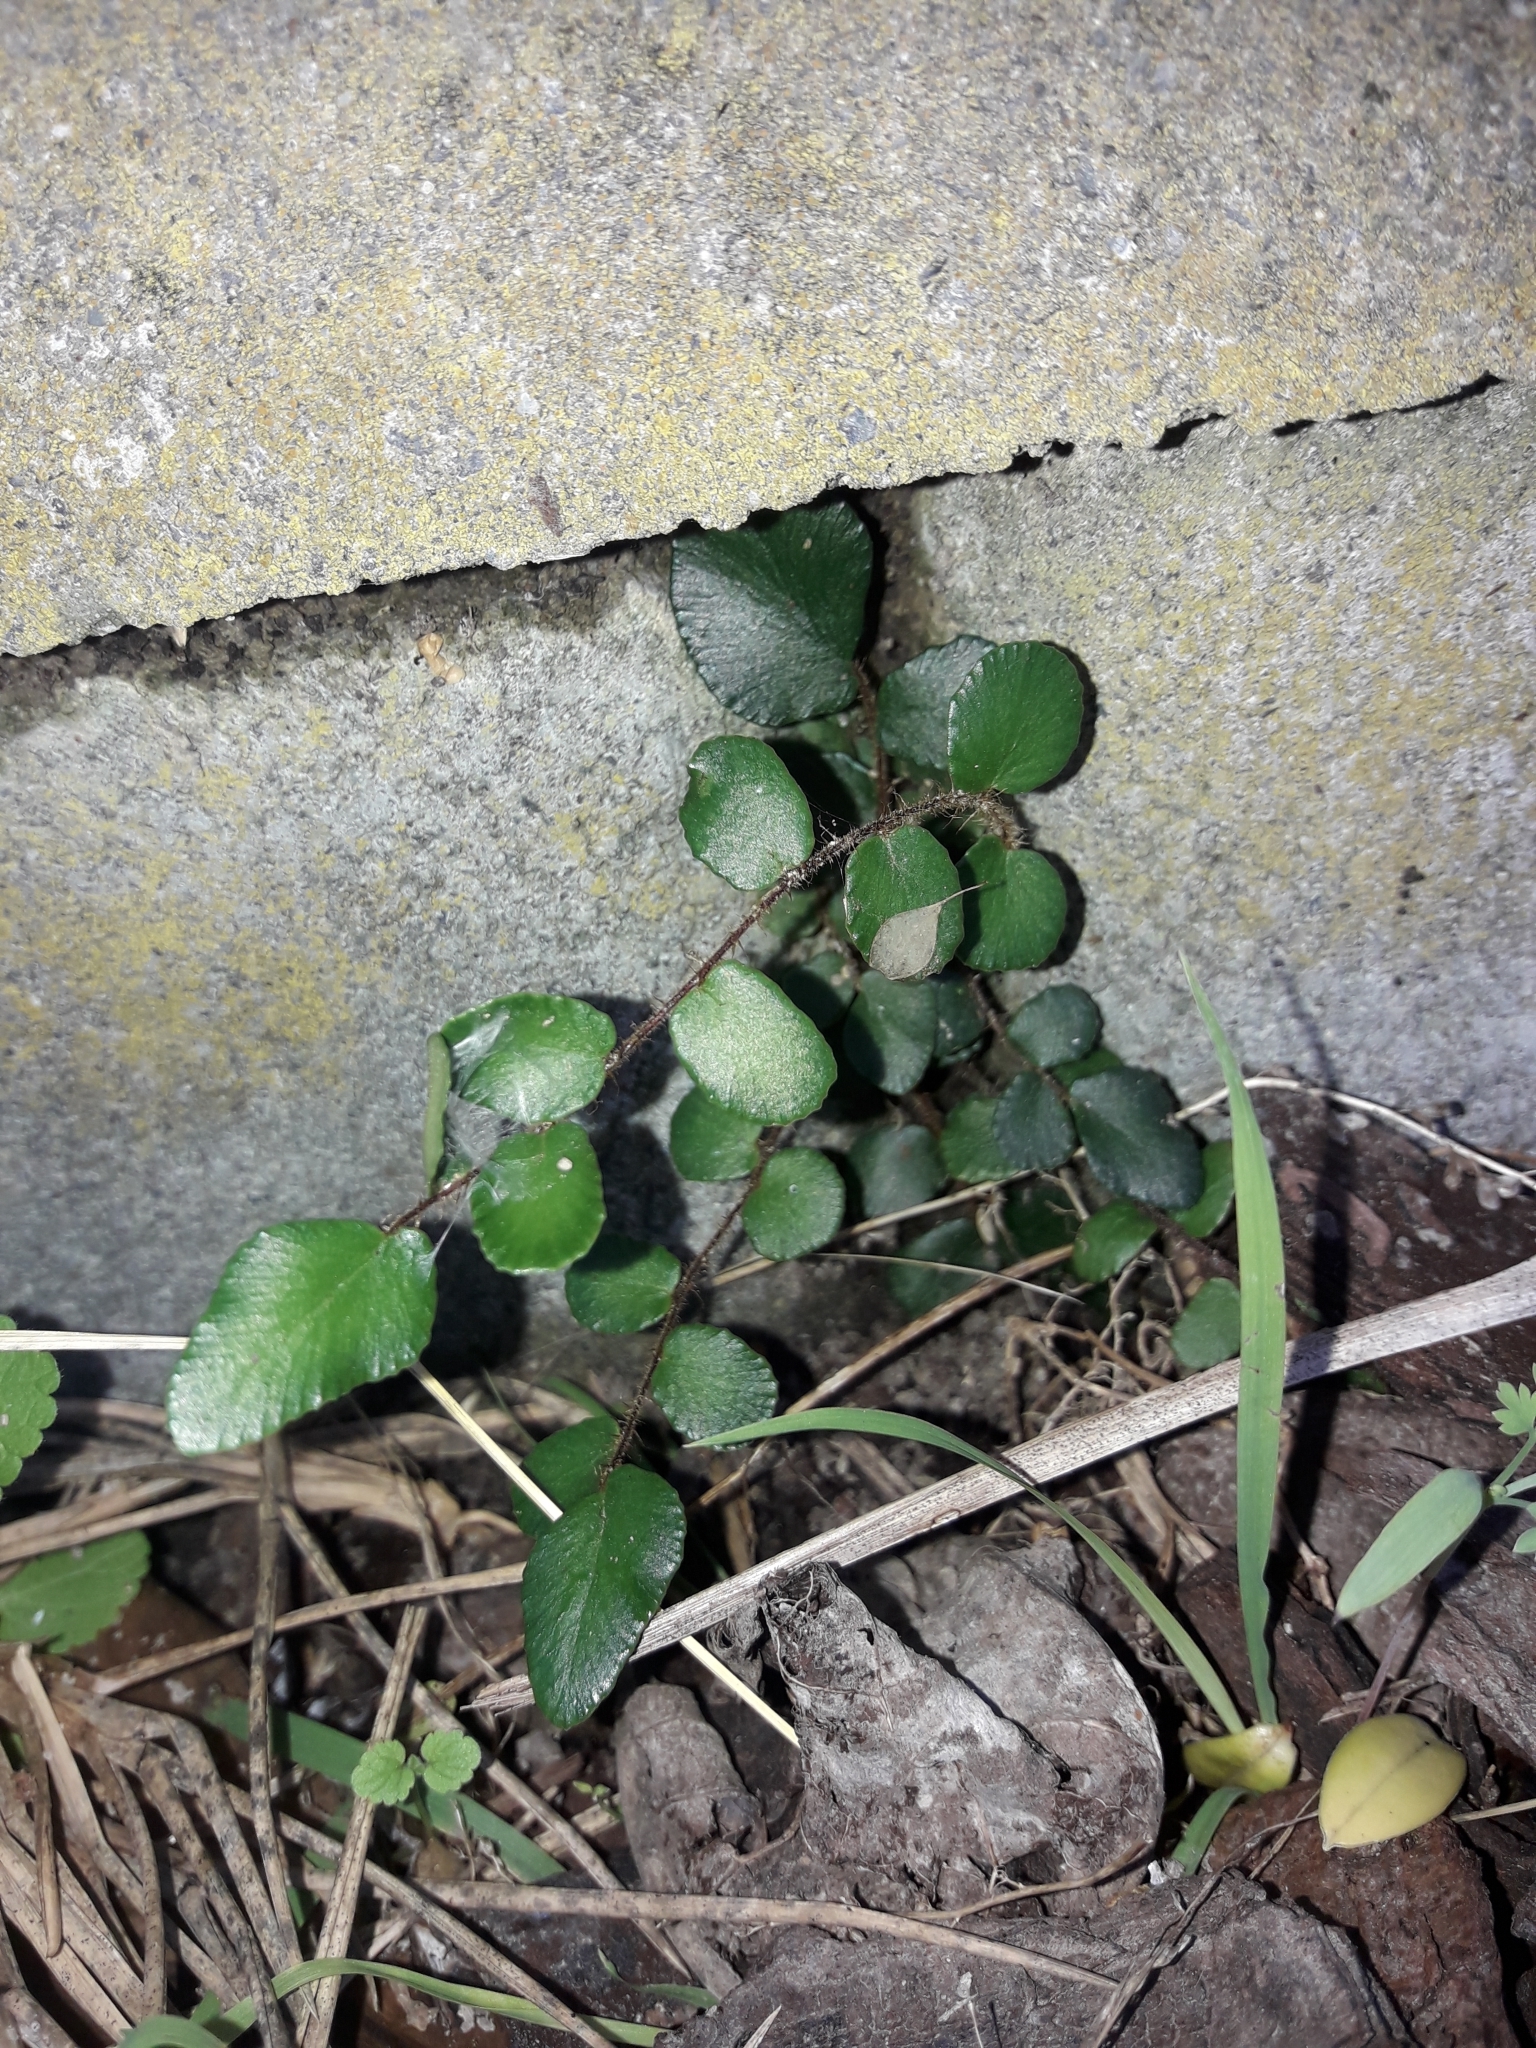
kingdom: Plantae
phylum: Tracheophyta
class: Polypodiopsida
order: Polypodiales
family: Pteridaceae
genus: Pellaea
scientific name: Pellaea rotundifolia
